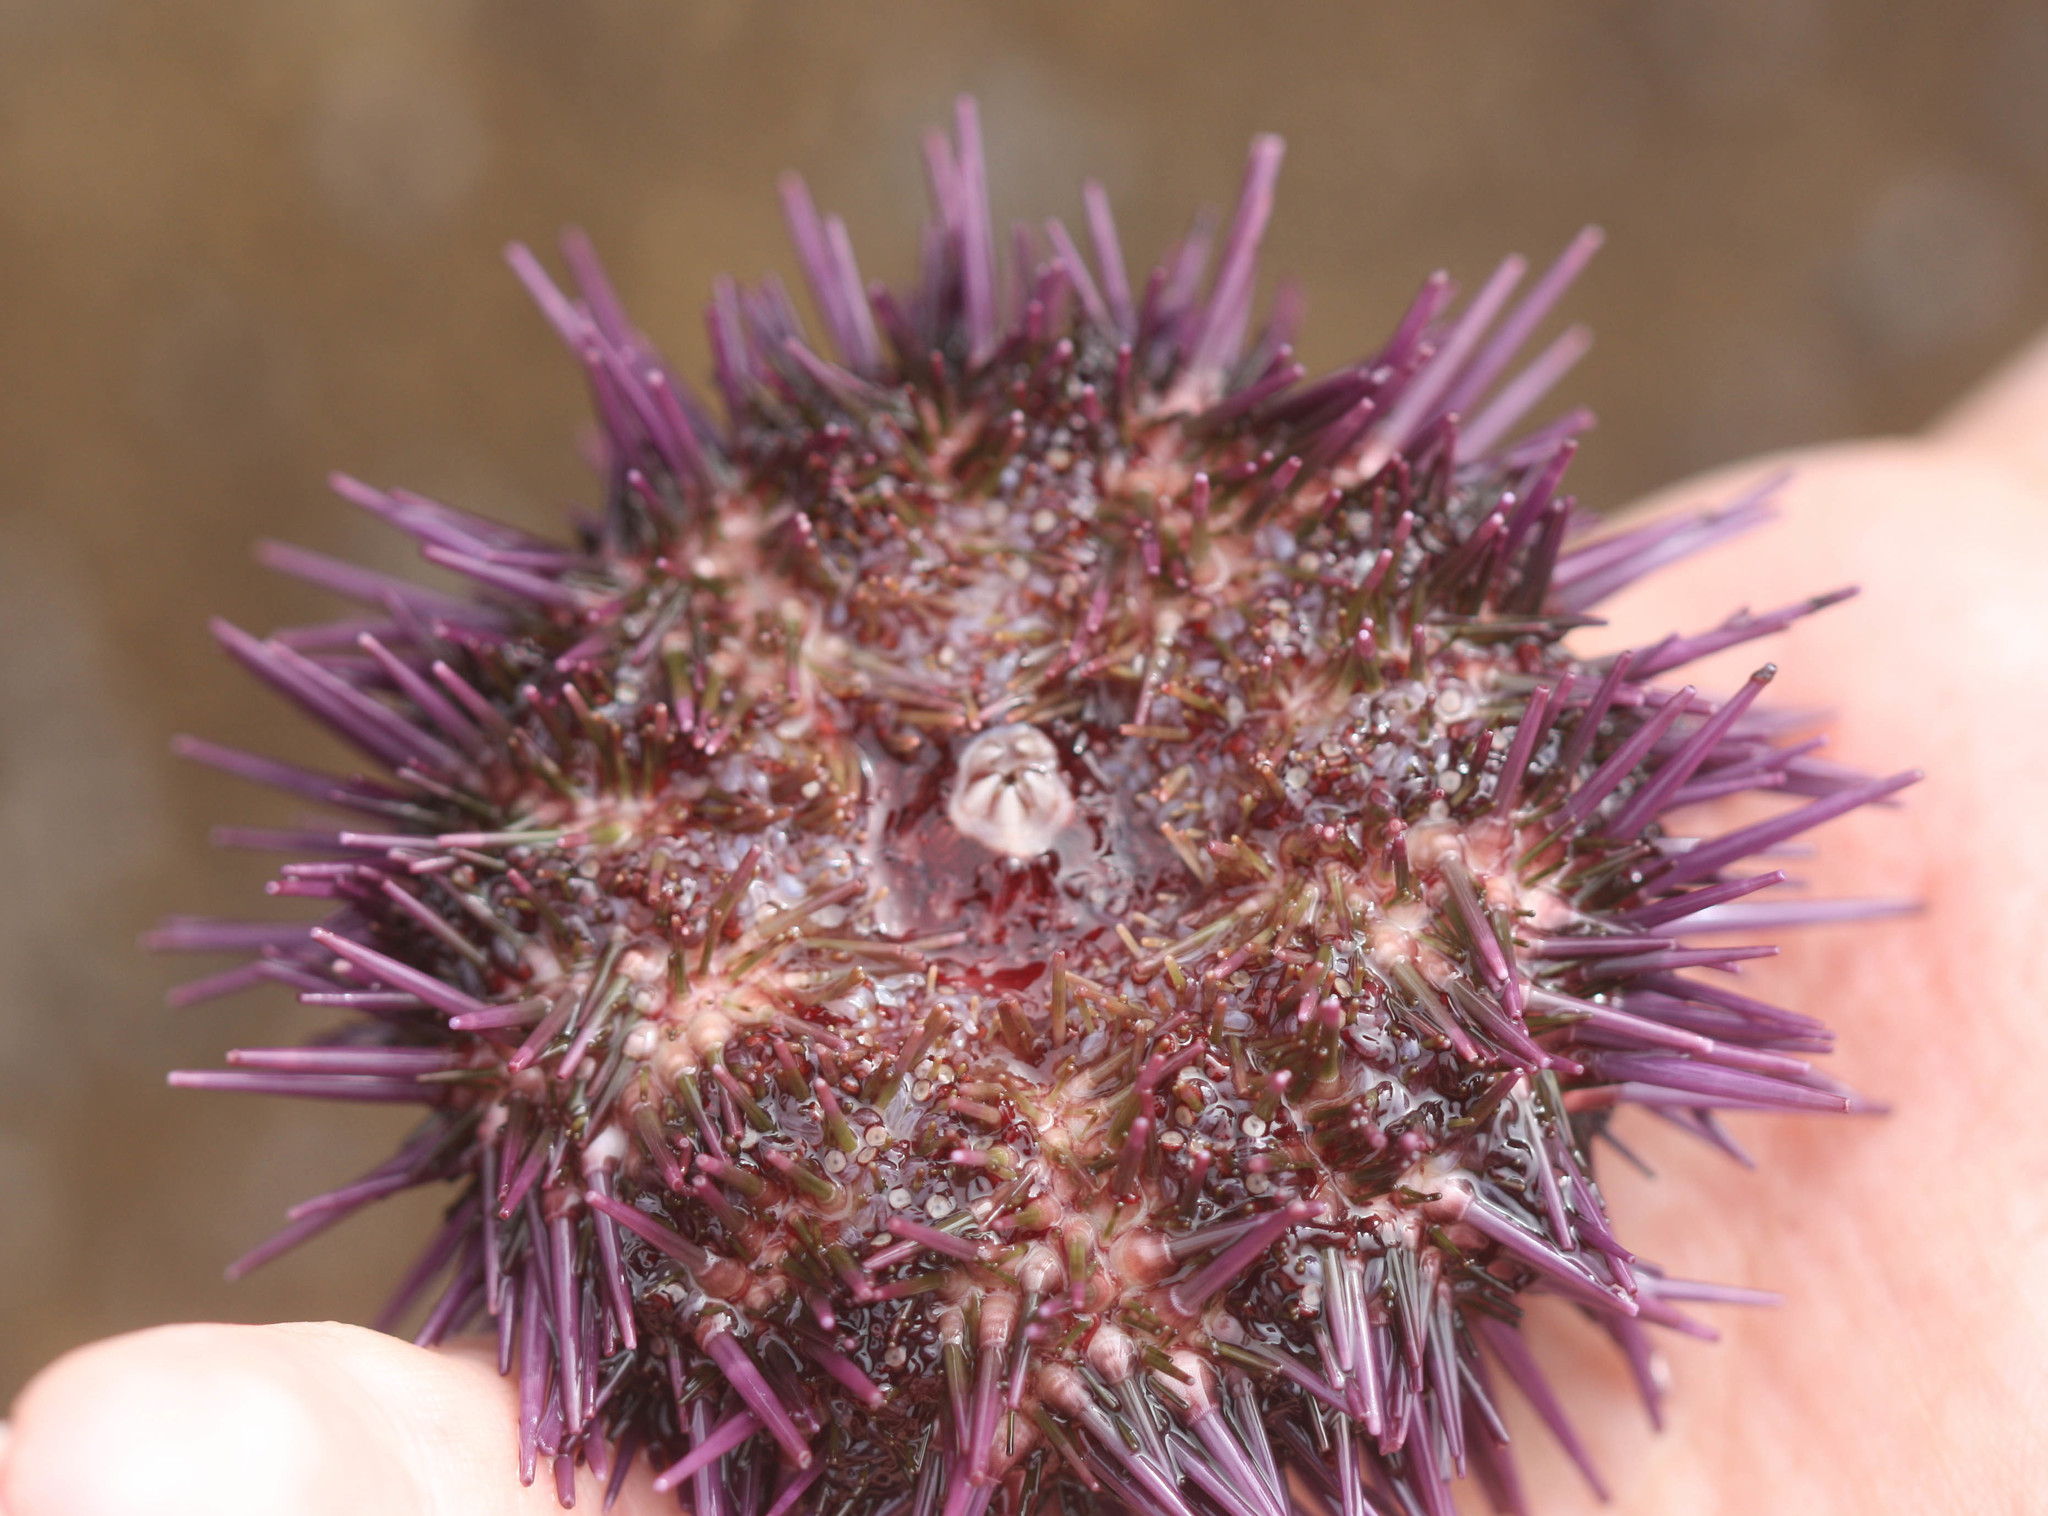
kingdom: Animalia
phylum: Echinodermata
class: Echinoidea
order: Camarodonta
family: Strongylocentrotidae
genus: Strongylocentrotus
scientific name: Strongylocentrotus purpuratus
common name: Purple sea urchin
